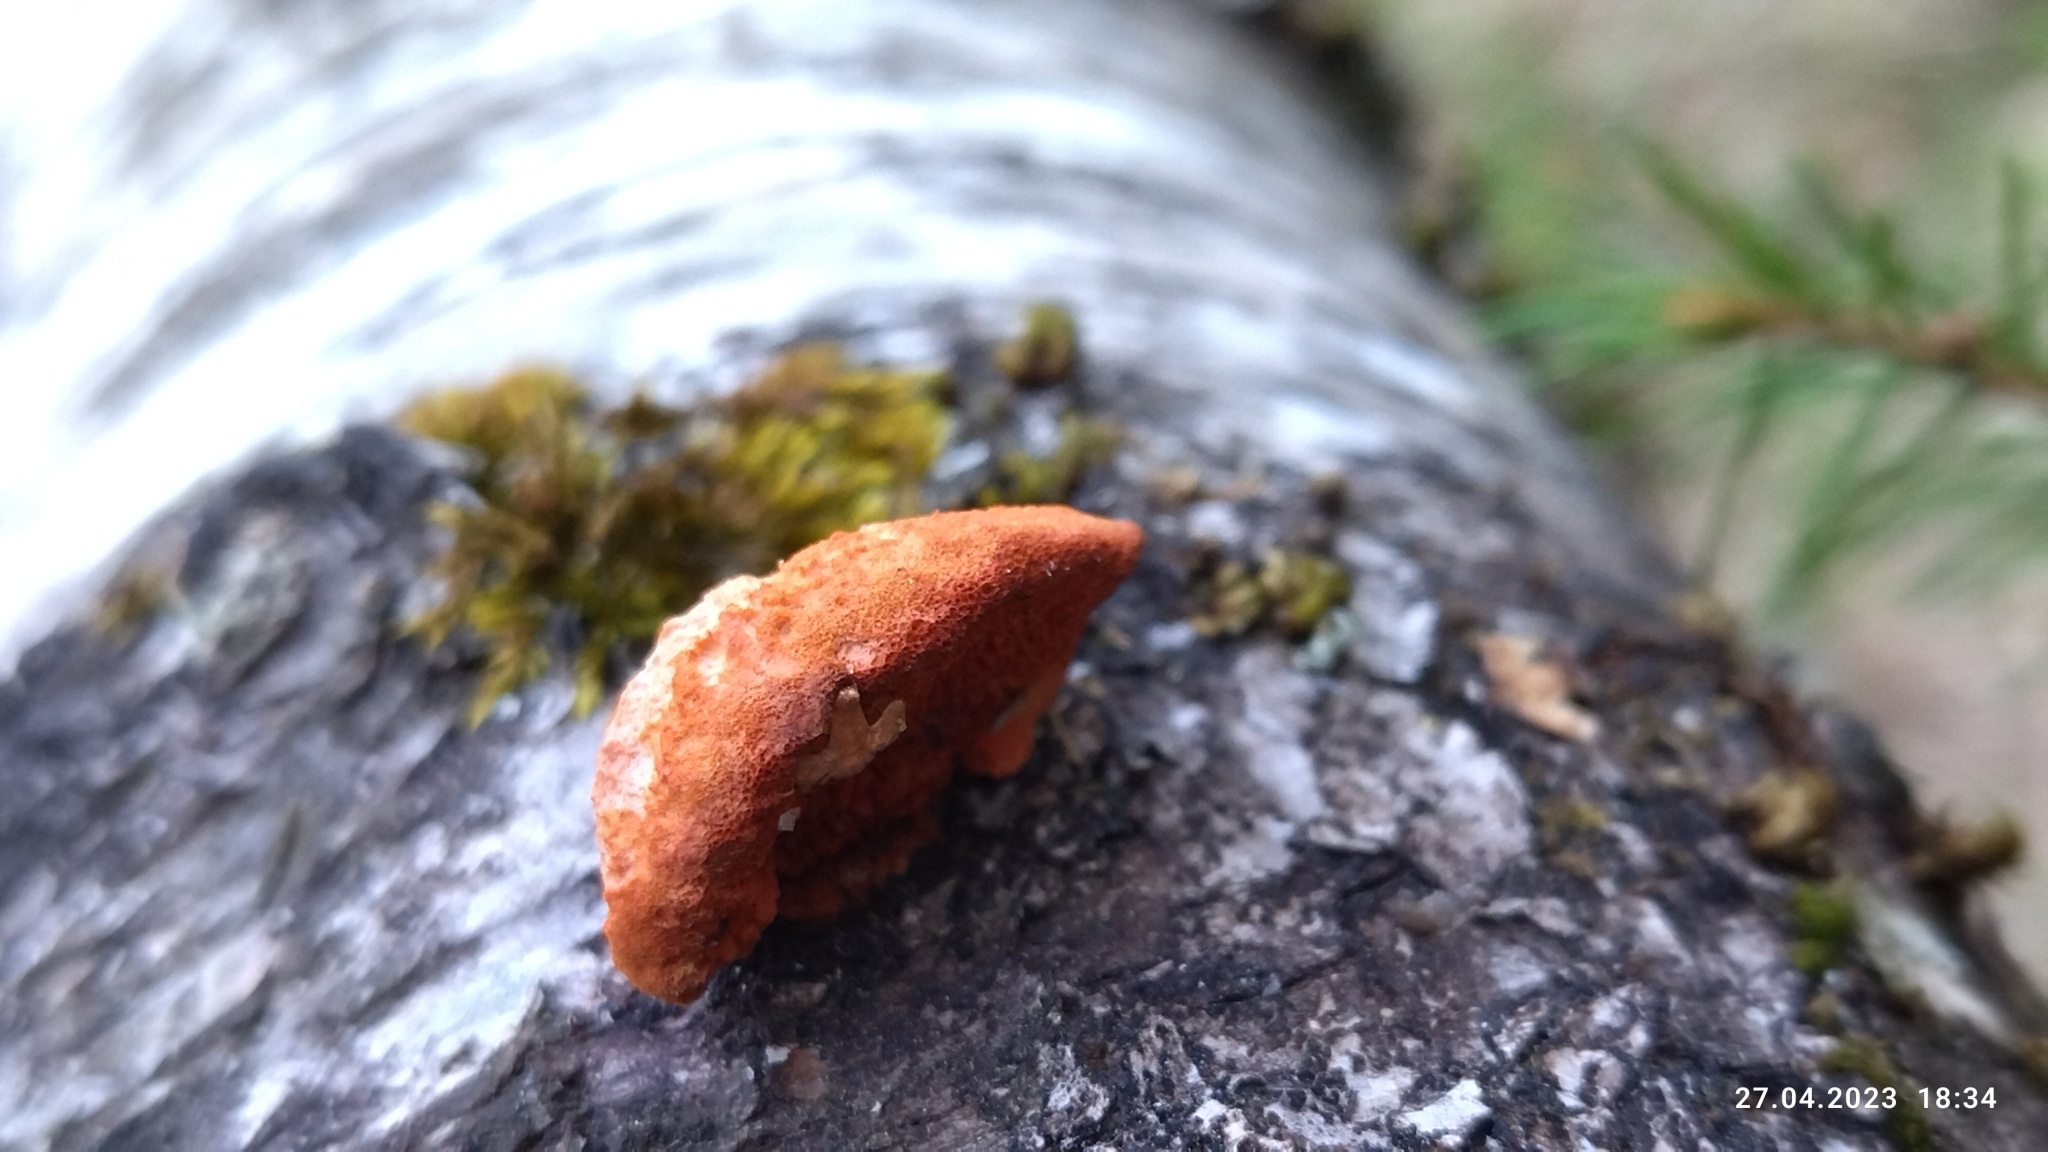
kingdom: Fungi
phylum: Basidiomycota
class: Agaricomycetes
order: Polyporales
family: Polyporaceae
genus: Trametes
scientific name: Trametes cinnabarina
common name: Northern cinnabar polypore
